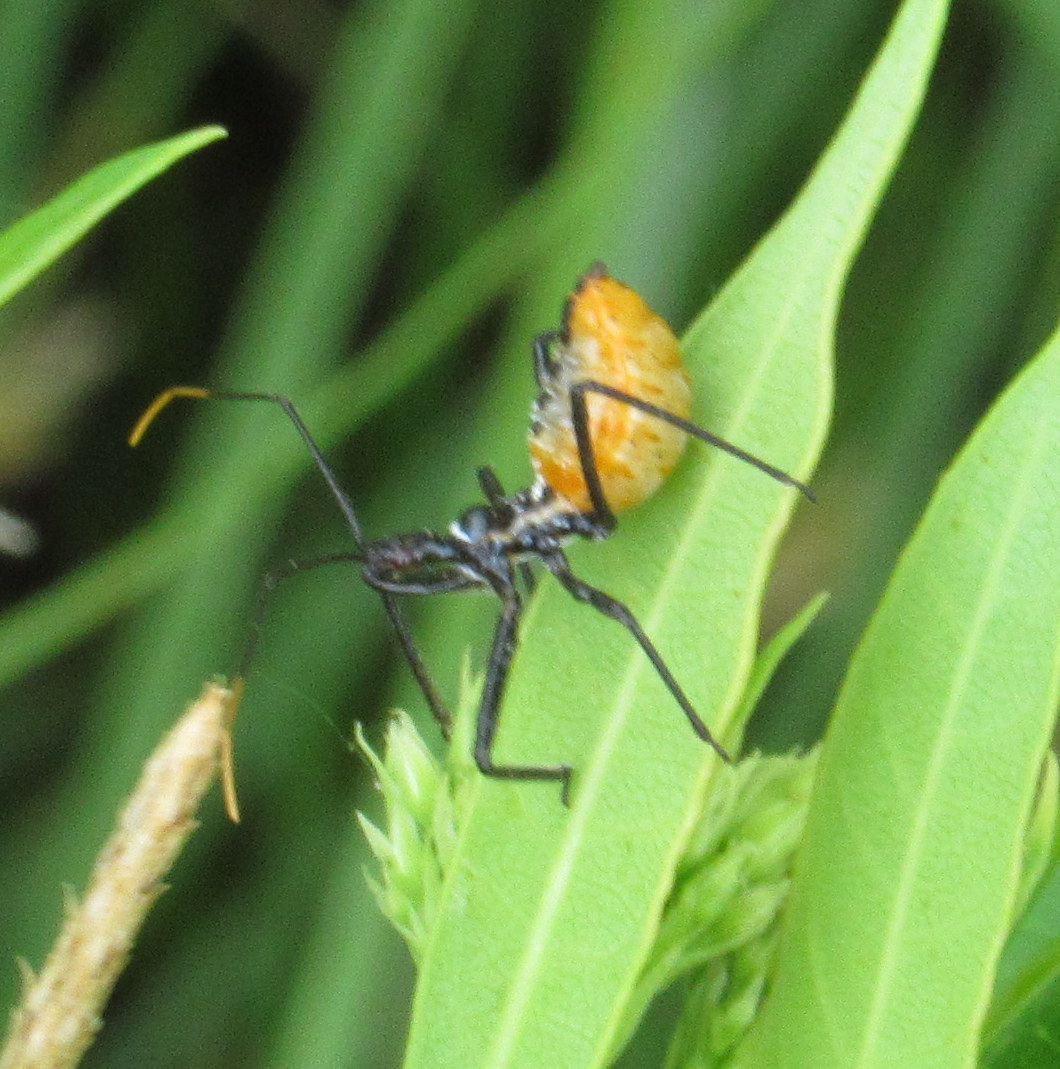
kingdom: Animalia
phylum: Arthropoda
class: Insecta
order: Hemiptera
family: Reduviidae
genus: Arilus
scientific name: Arilus cristatus
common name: North american wheel bug
